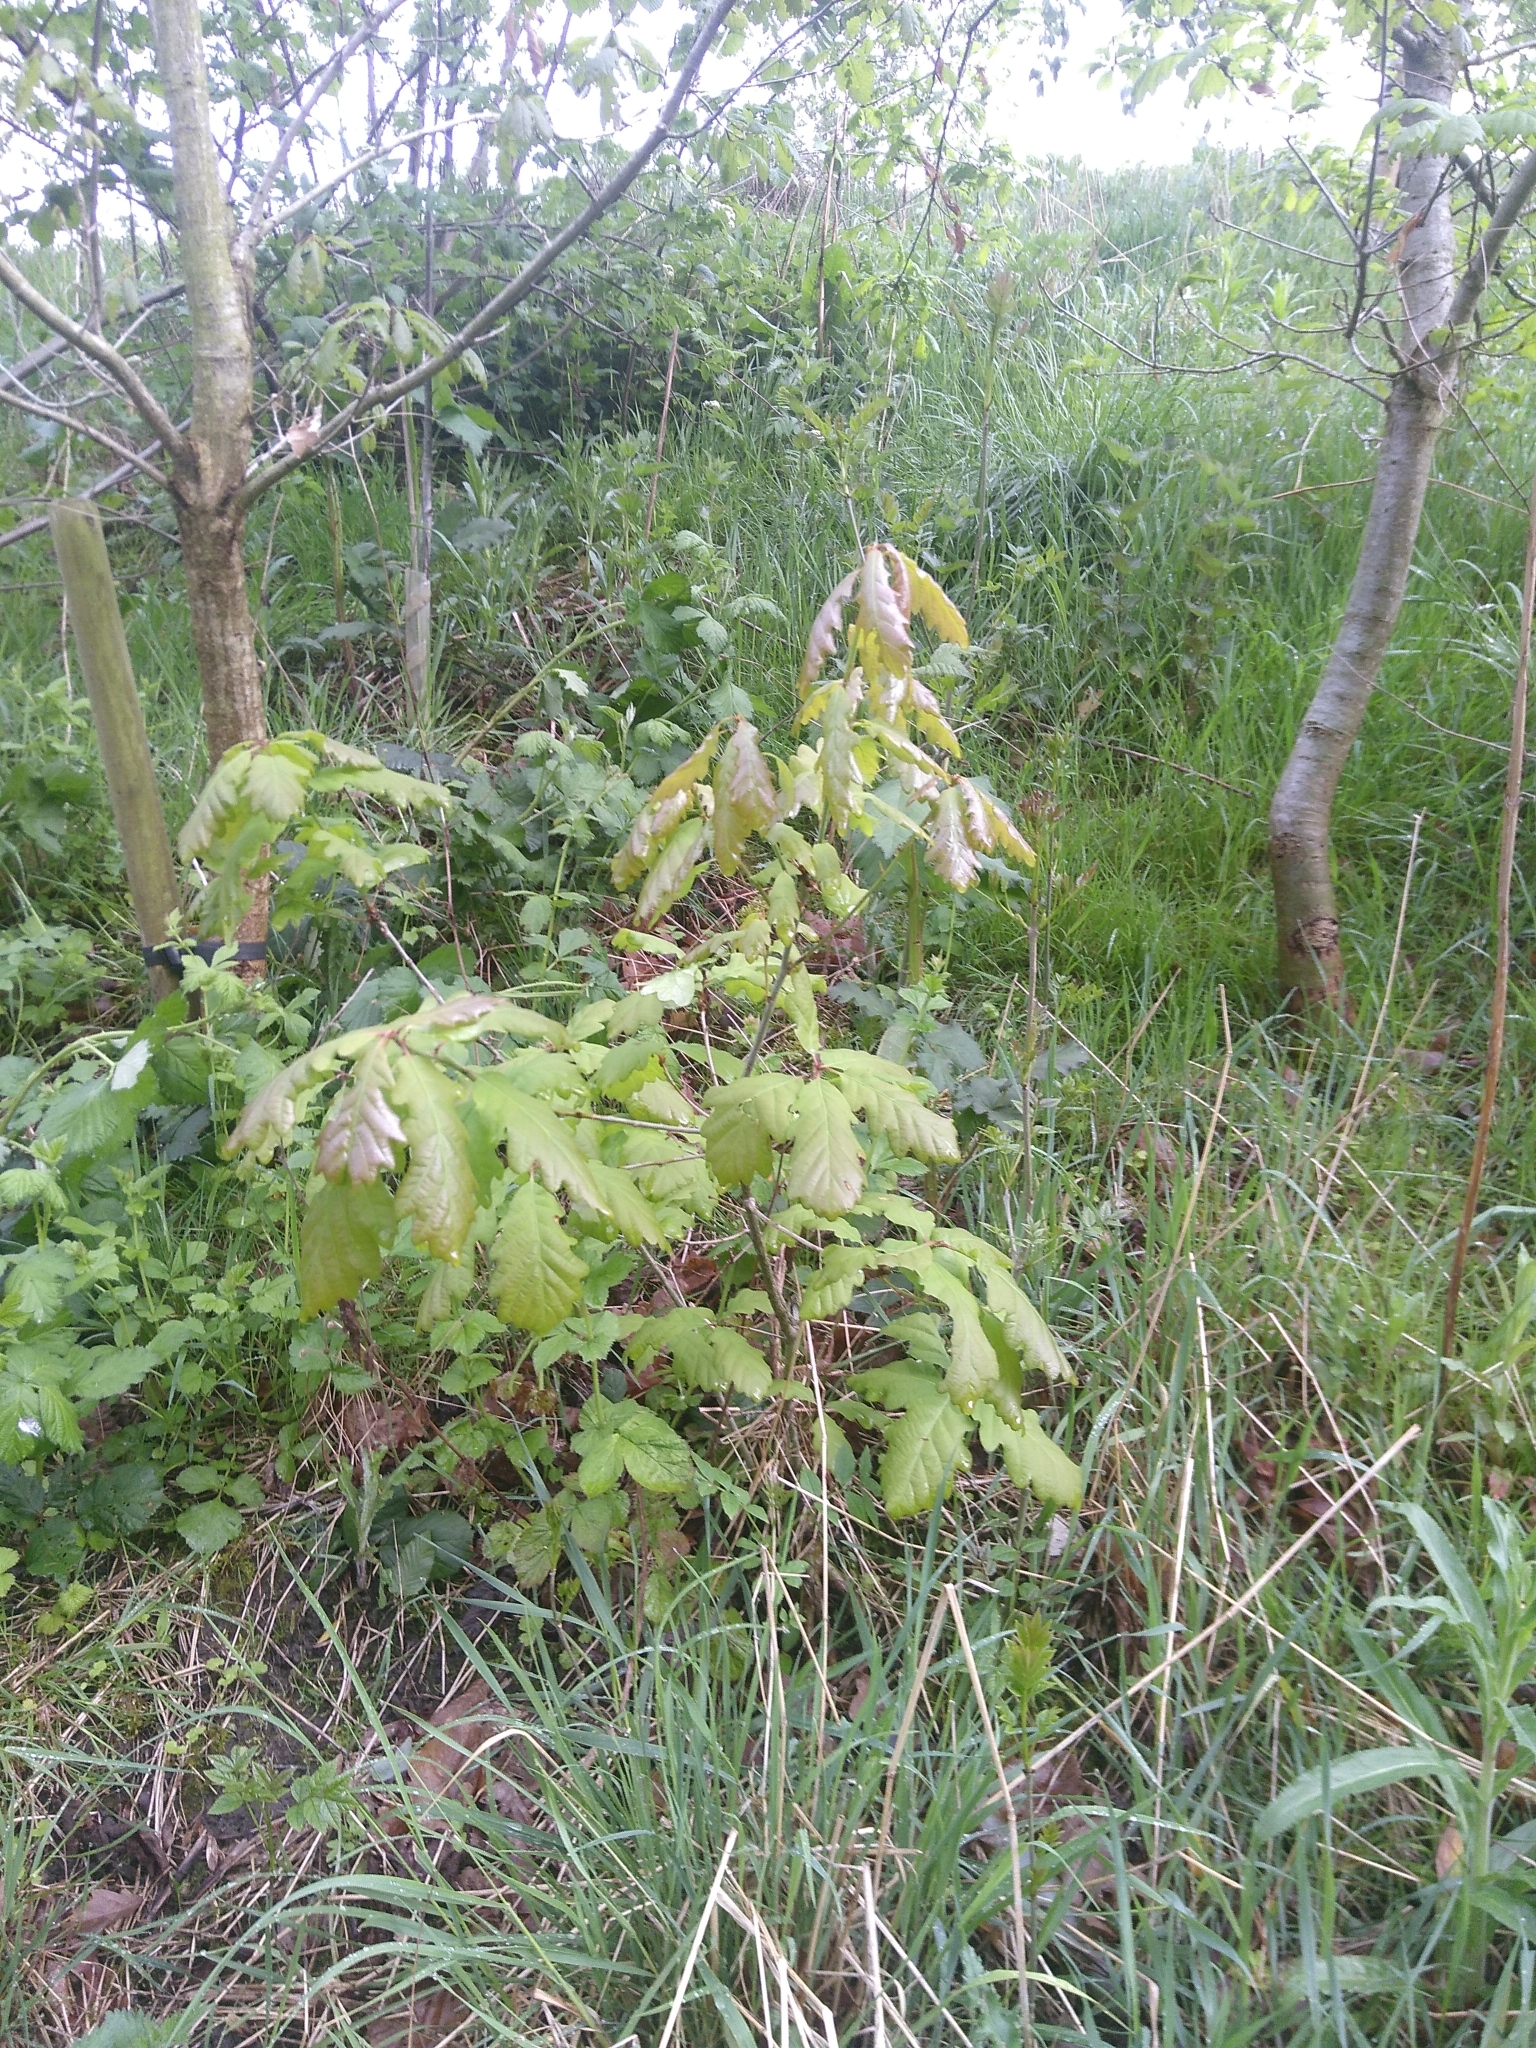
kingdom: Plantae
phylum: Tracheophyta
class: Magnoliopsida
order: Fagales
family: Fagaceae
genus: Quercus
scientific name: Quercus robur
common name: Pedunculate oak
